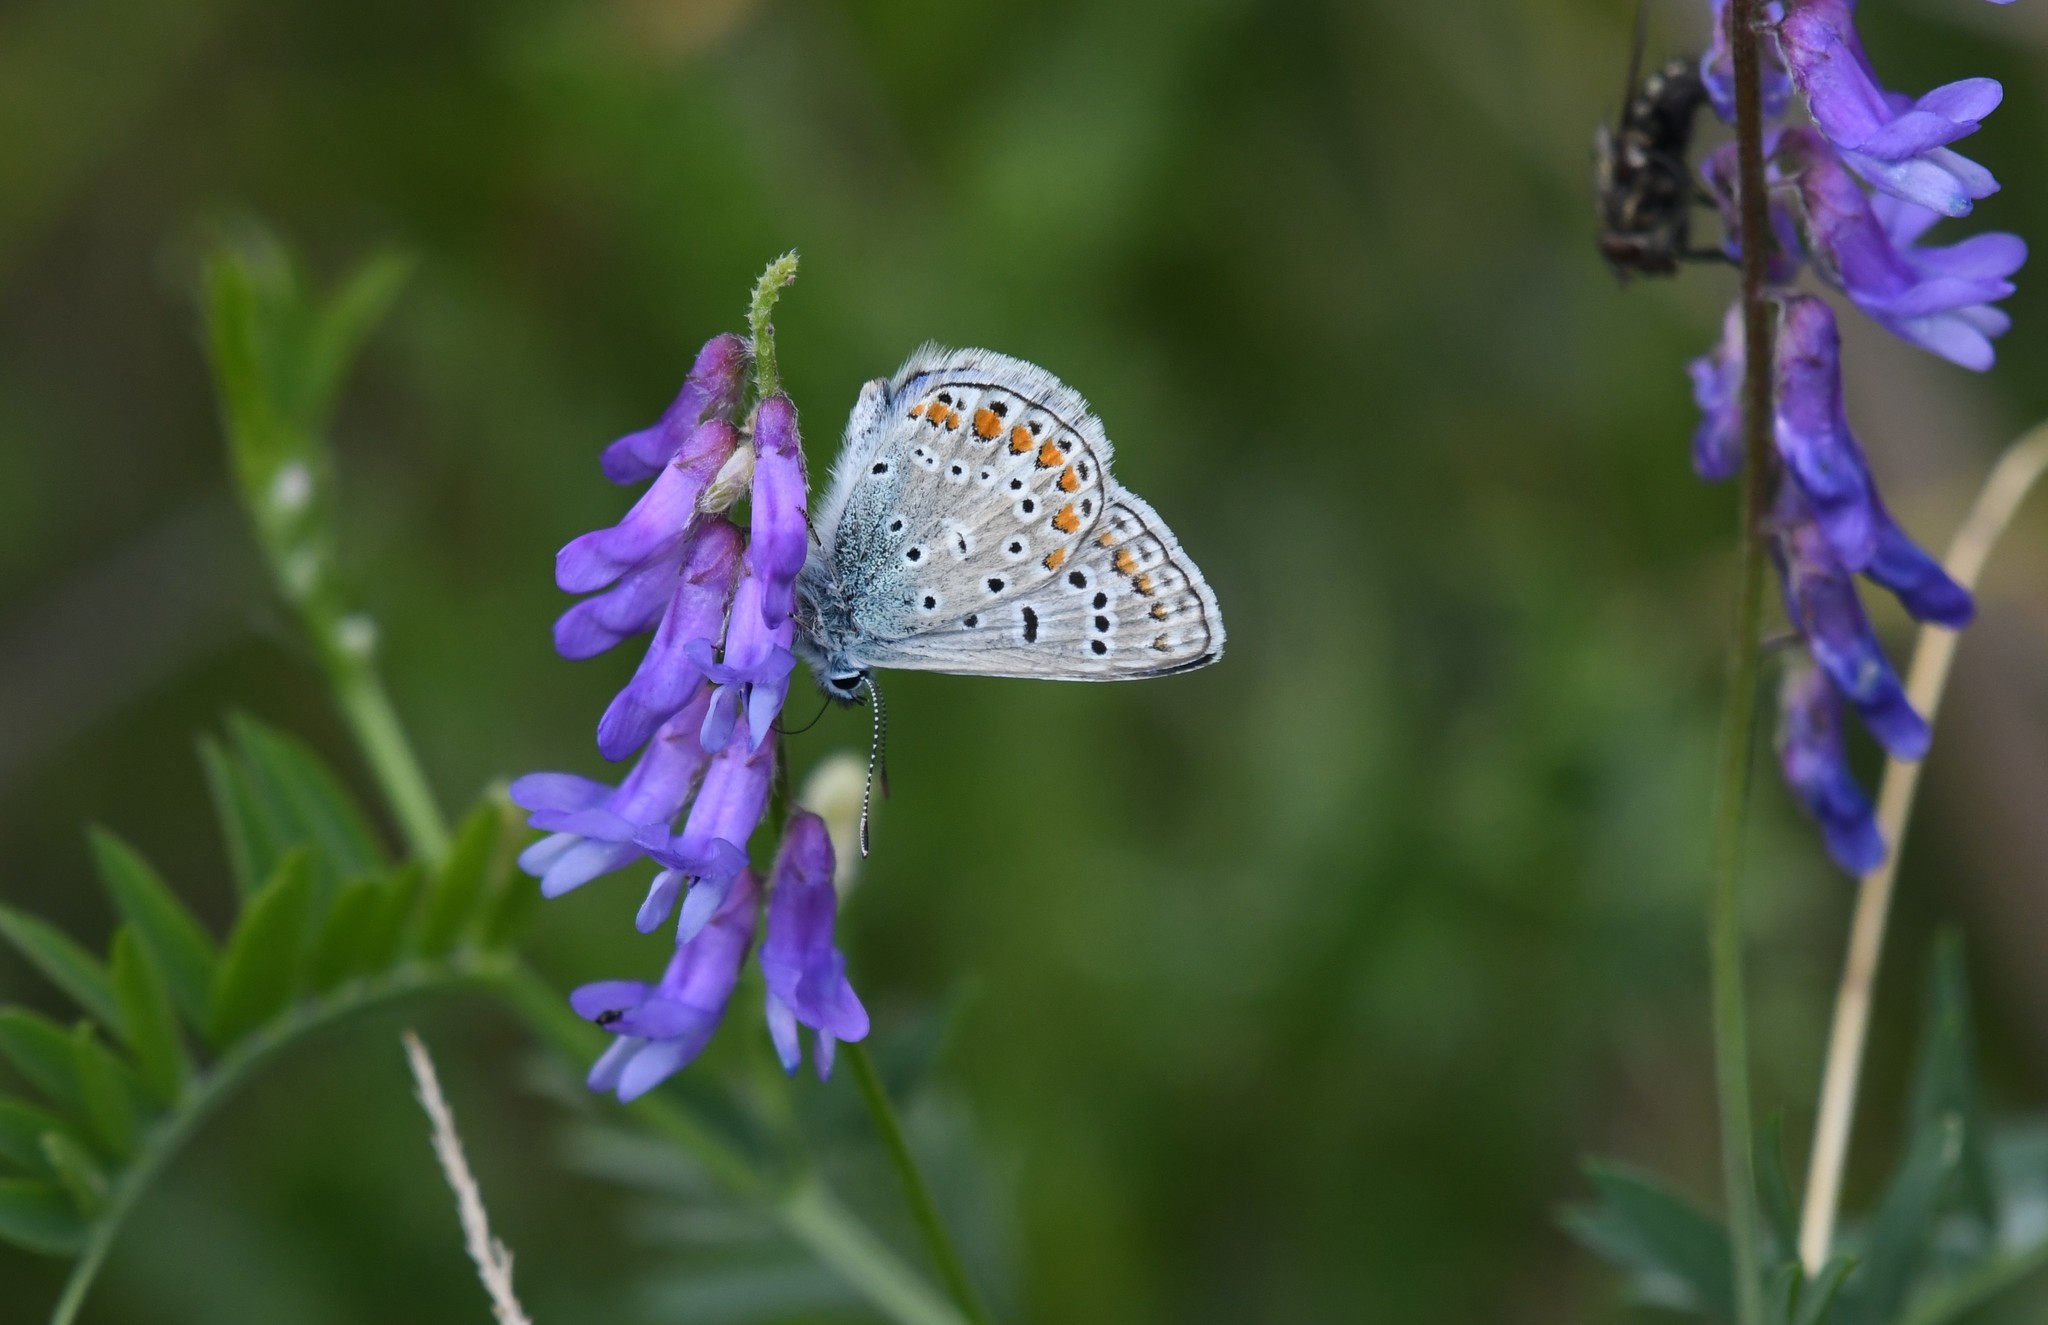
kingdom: Animalia
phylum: Arthropoda
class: Insecta
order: Lepidoptera
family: Lycaenidae
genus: Polyommatus
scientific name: Polyommatus icarus
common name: Common blue
